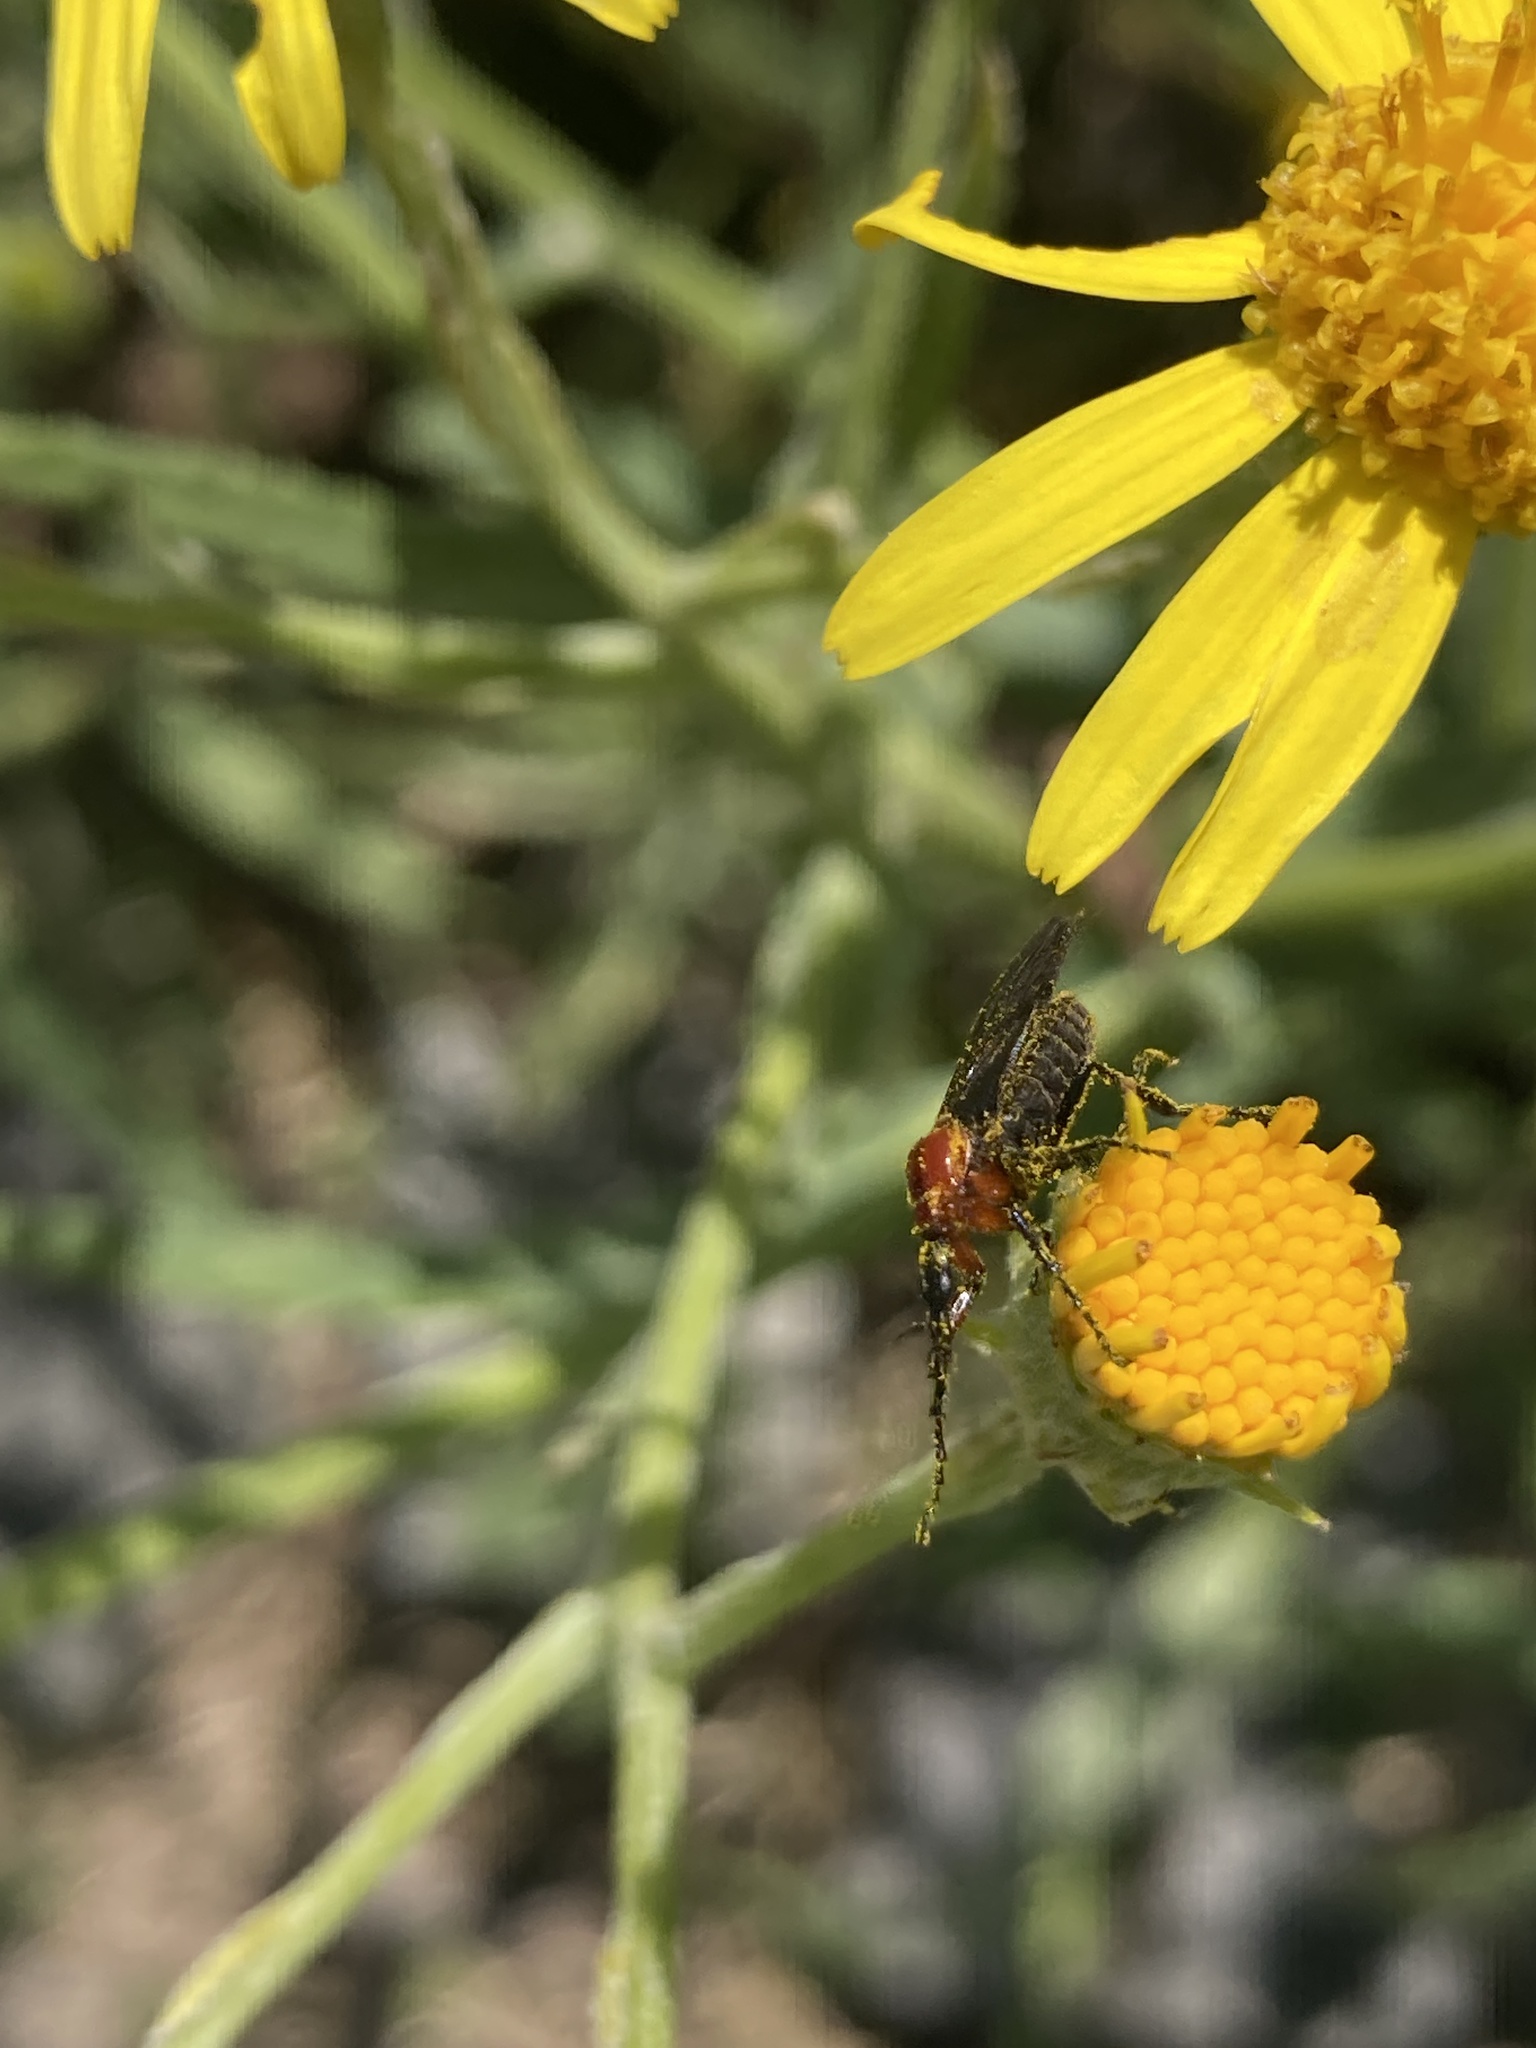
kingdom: Animalia
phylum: Arthropoda
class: Insecta
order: Diptera
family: Bibionidae
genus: Dilophus
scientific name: Dilophus pectoralis
